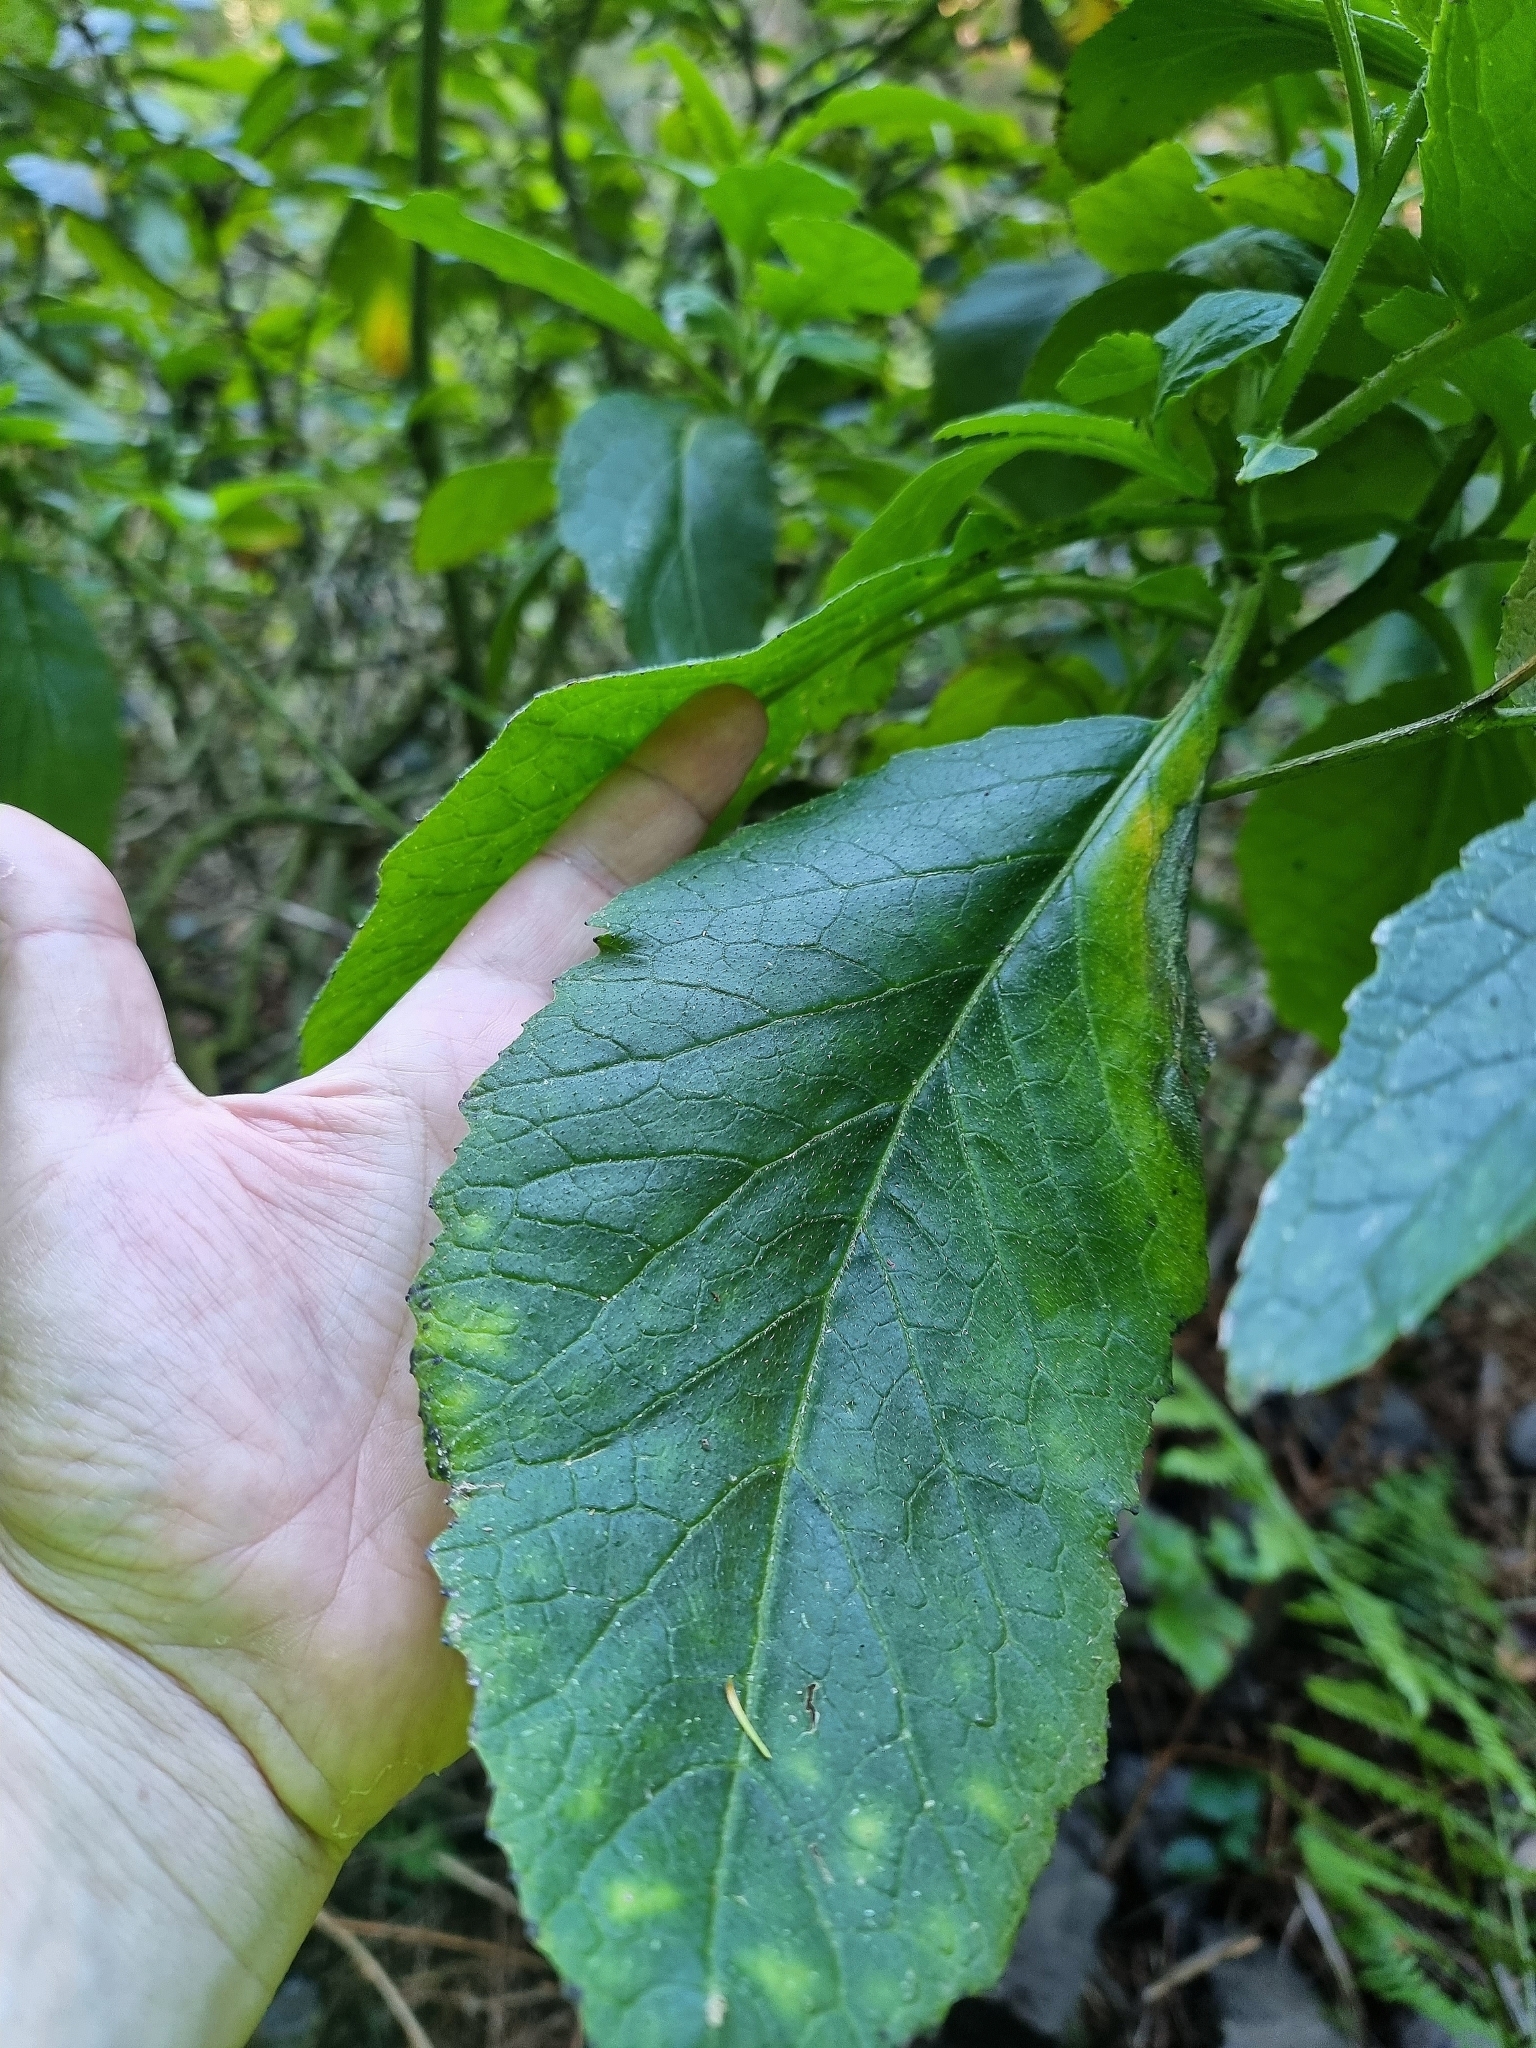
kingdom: Plantae
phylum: Tracheophyta
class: Magnoliopsida
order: Brassicales
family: Brassicaceae
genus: Sinapidendron
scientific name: Sinapidendron rupestre
